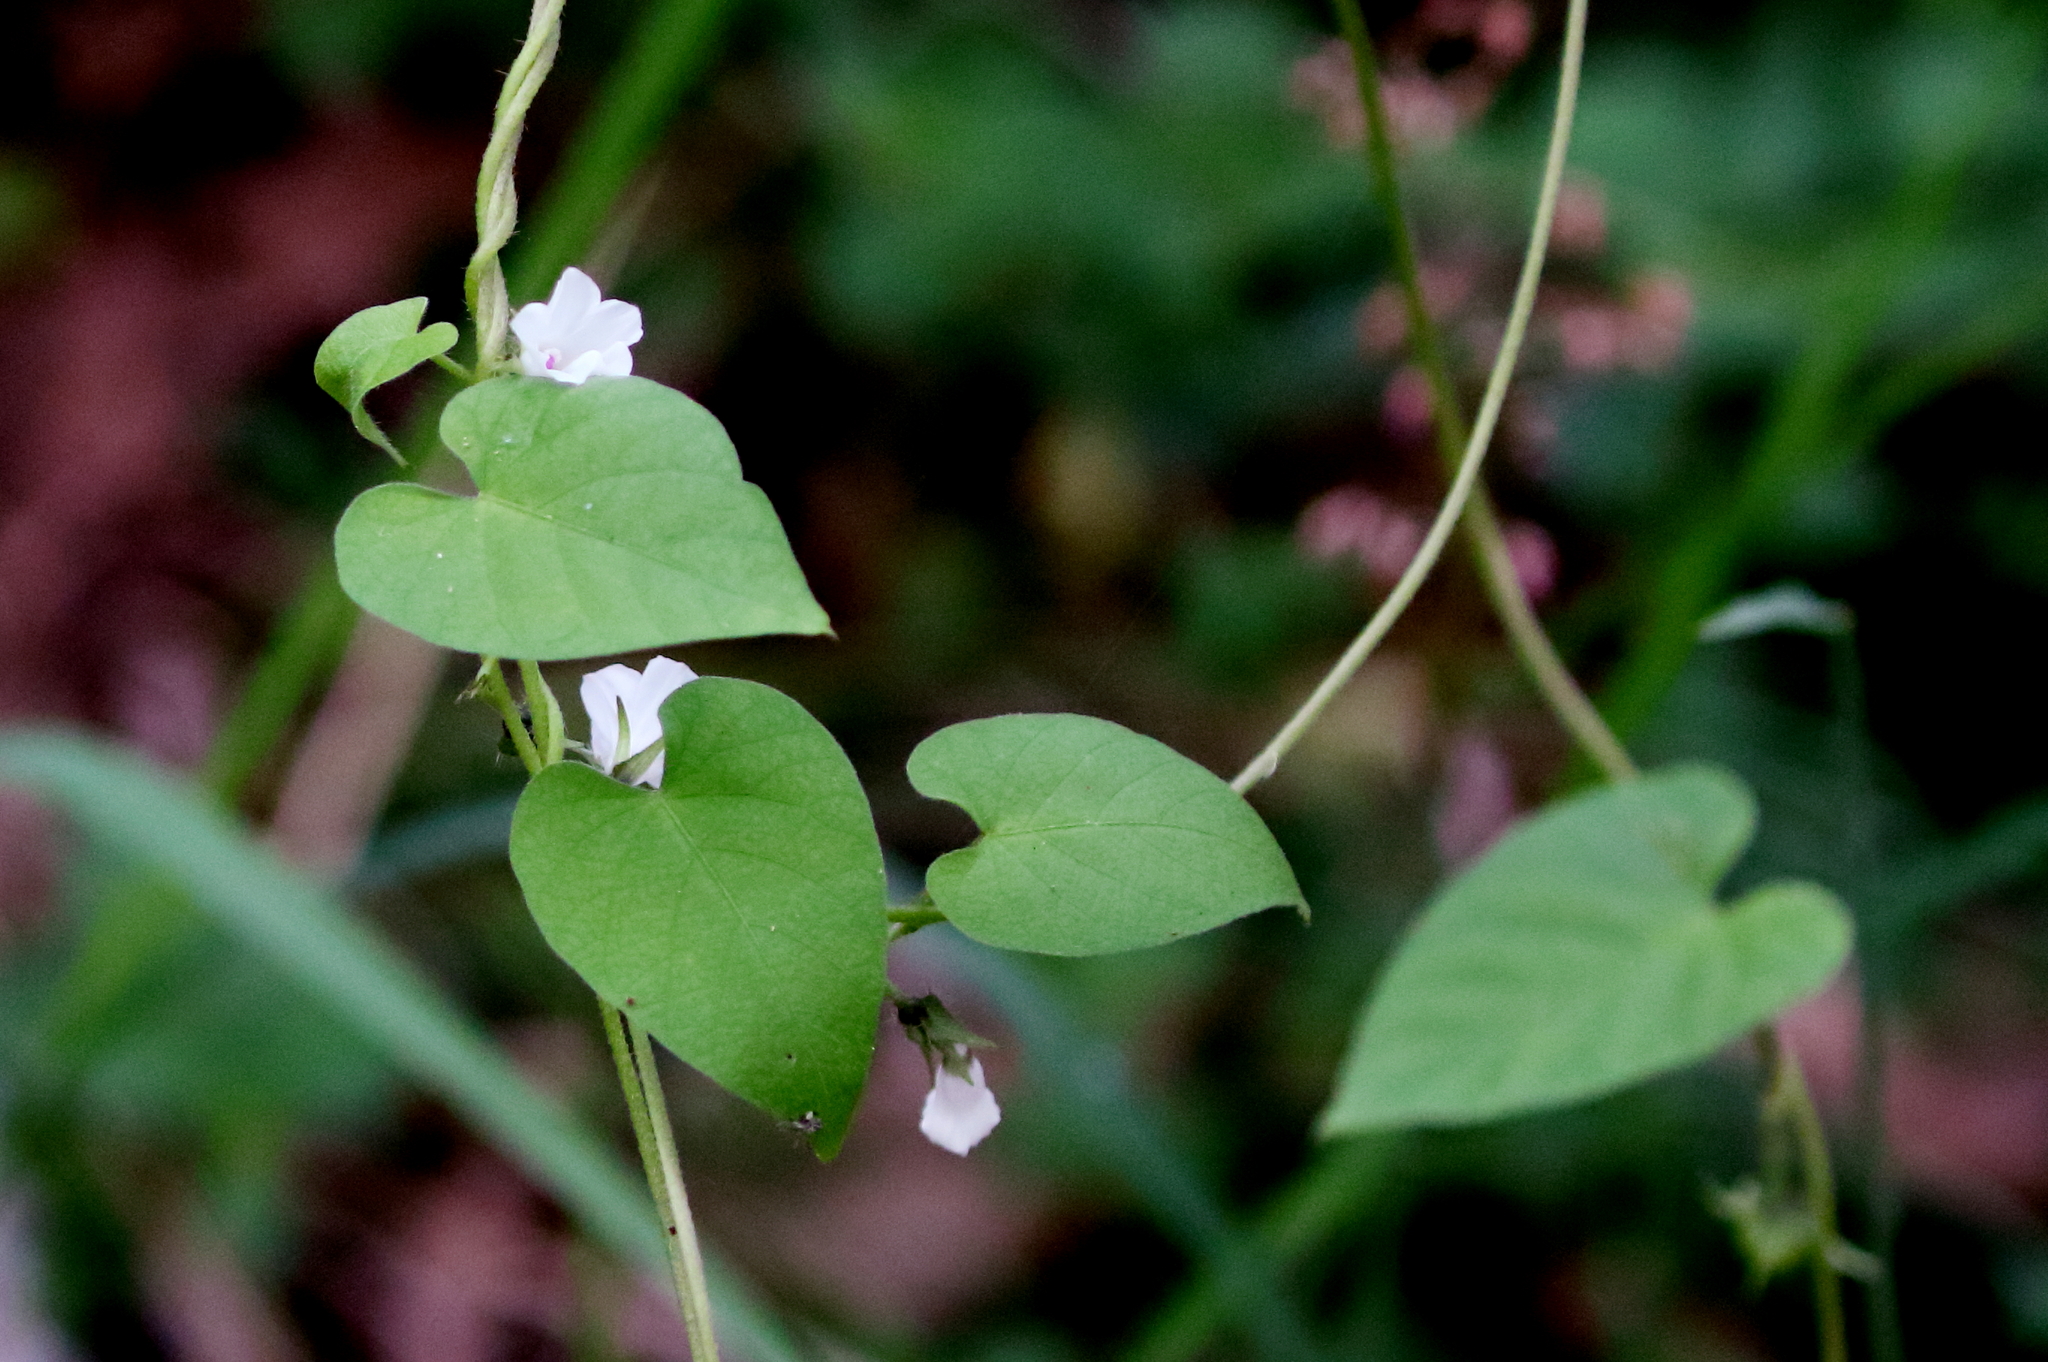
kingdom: Plantae
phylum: Tracheophyta
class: Magnoliopsida
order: Solanales
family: Convolvulaceae
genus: Ipomoea
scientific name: Ipomoea biflora
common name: Bellvine
